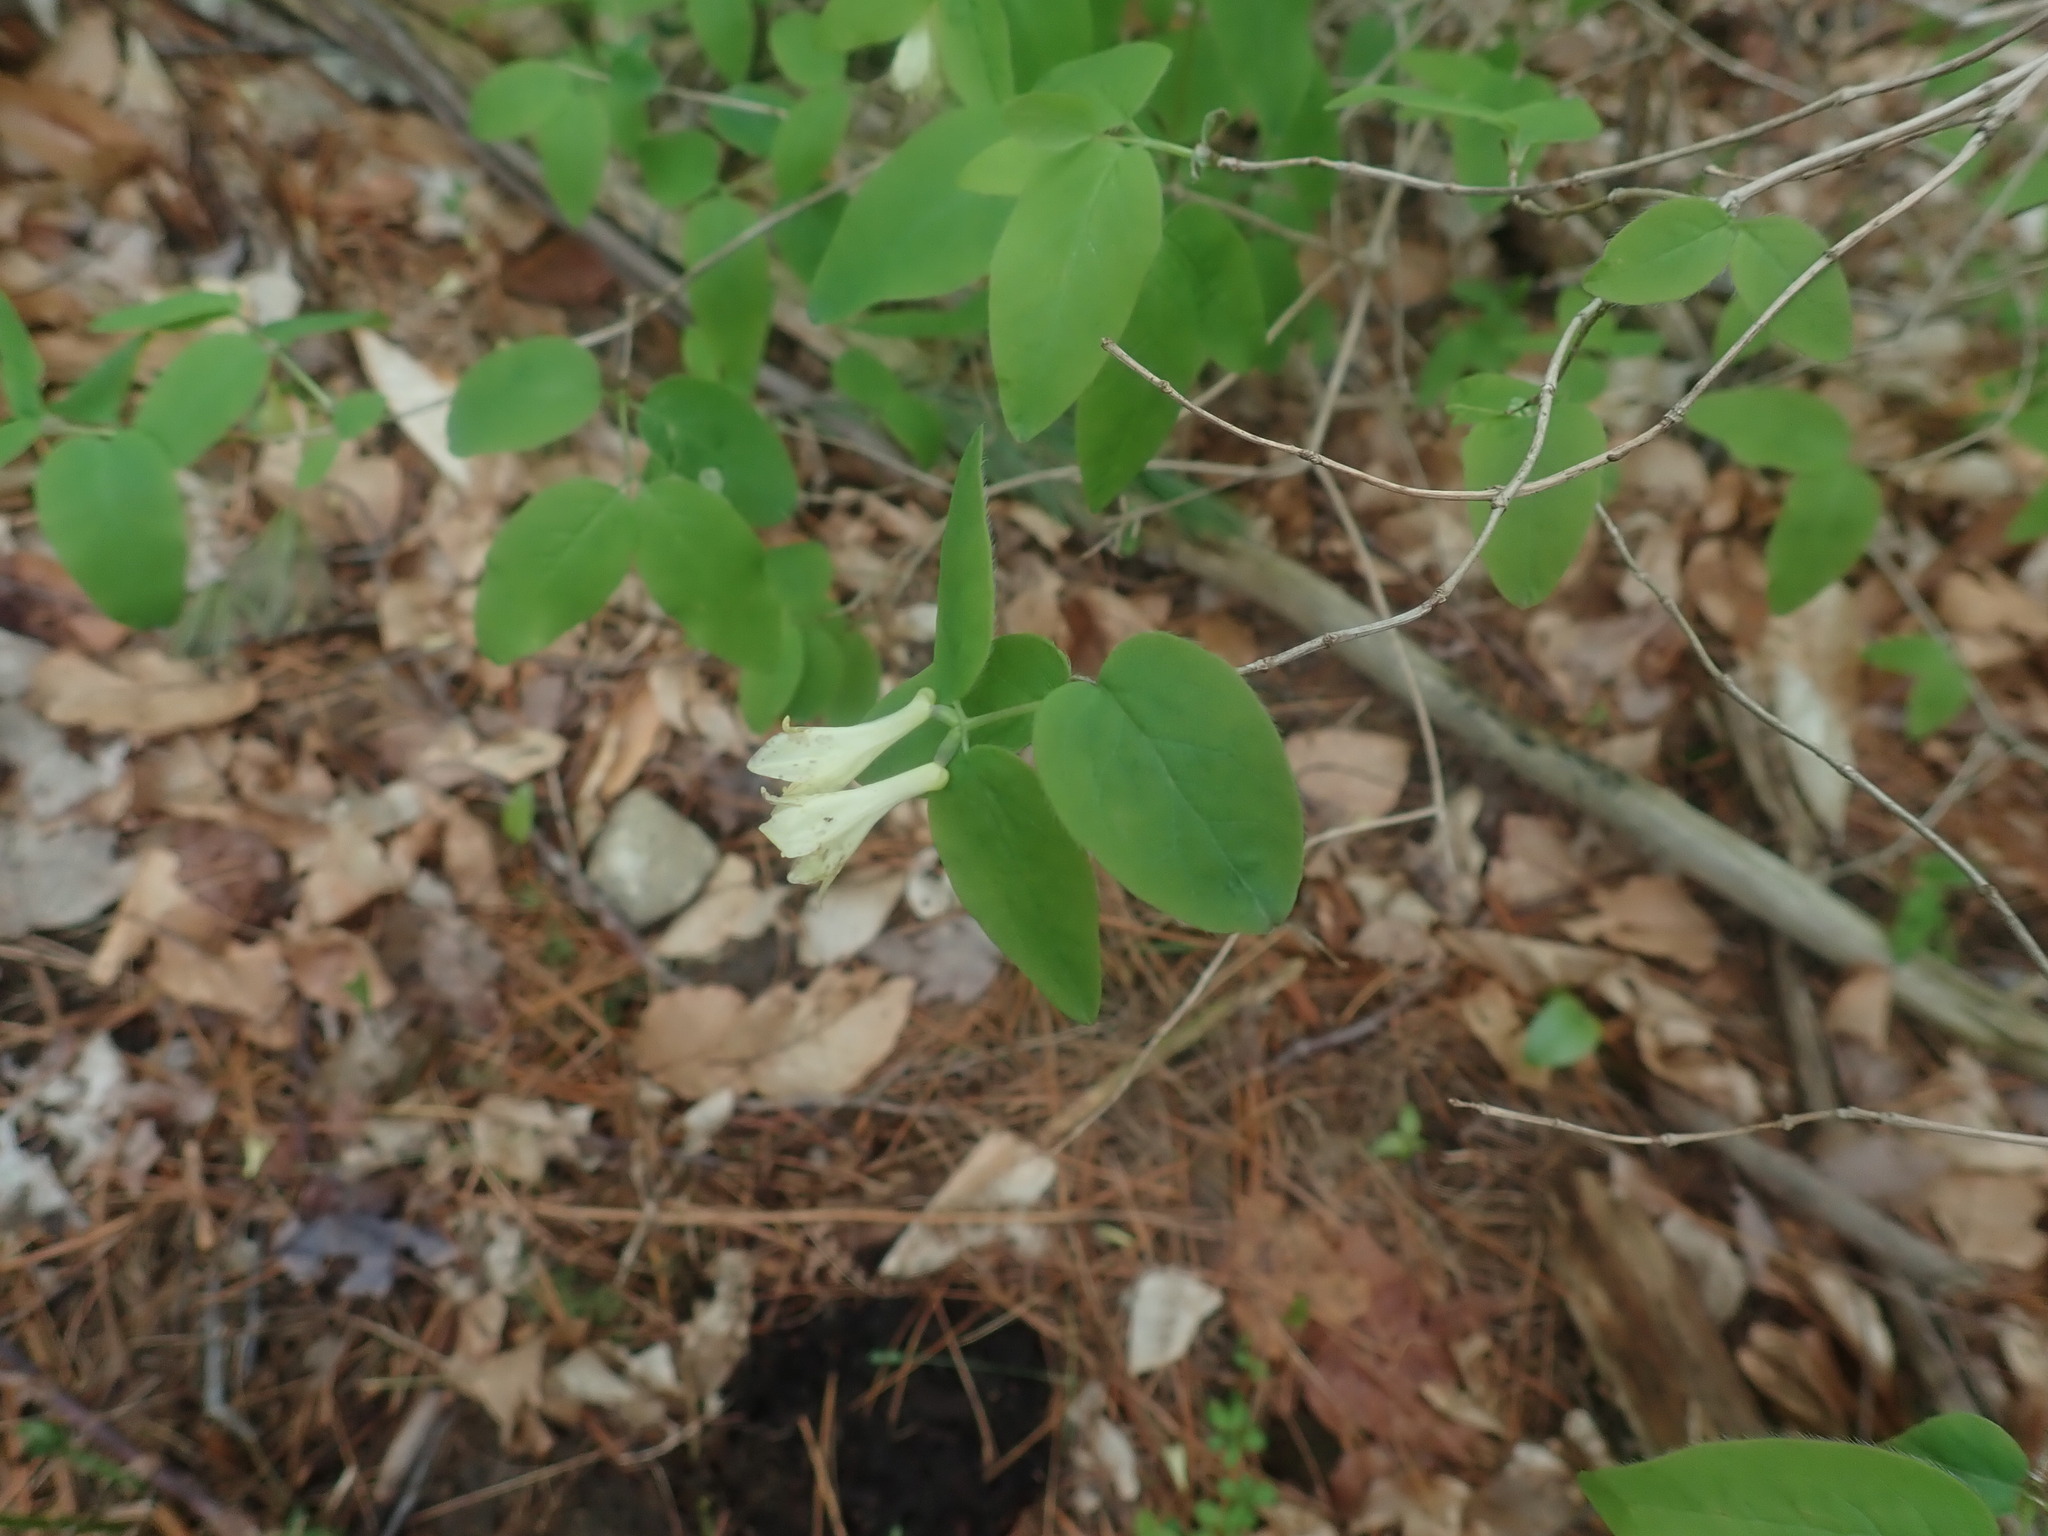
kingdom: Plantae
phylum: Tracheophyta
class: Magnoliopsida
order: Dipsacales
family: Caprifoliaceae
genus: Lonicera
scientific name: Lonicera canadensis
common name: American fly-honeysuckle
